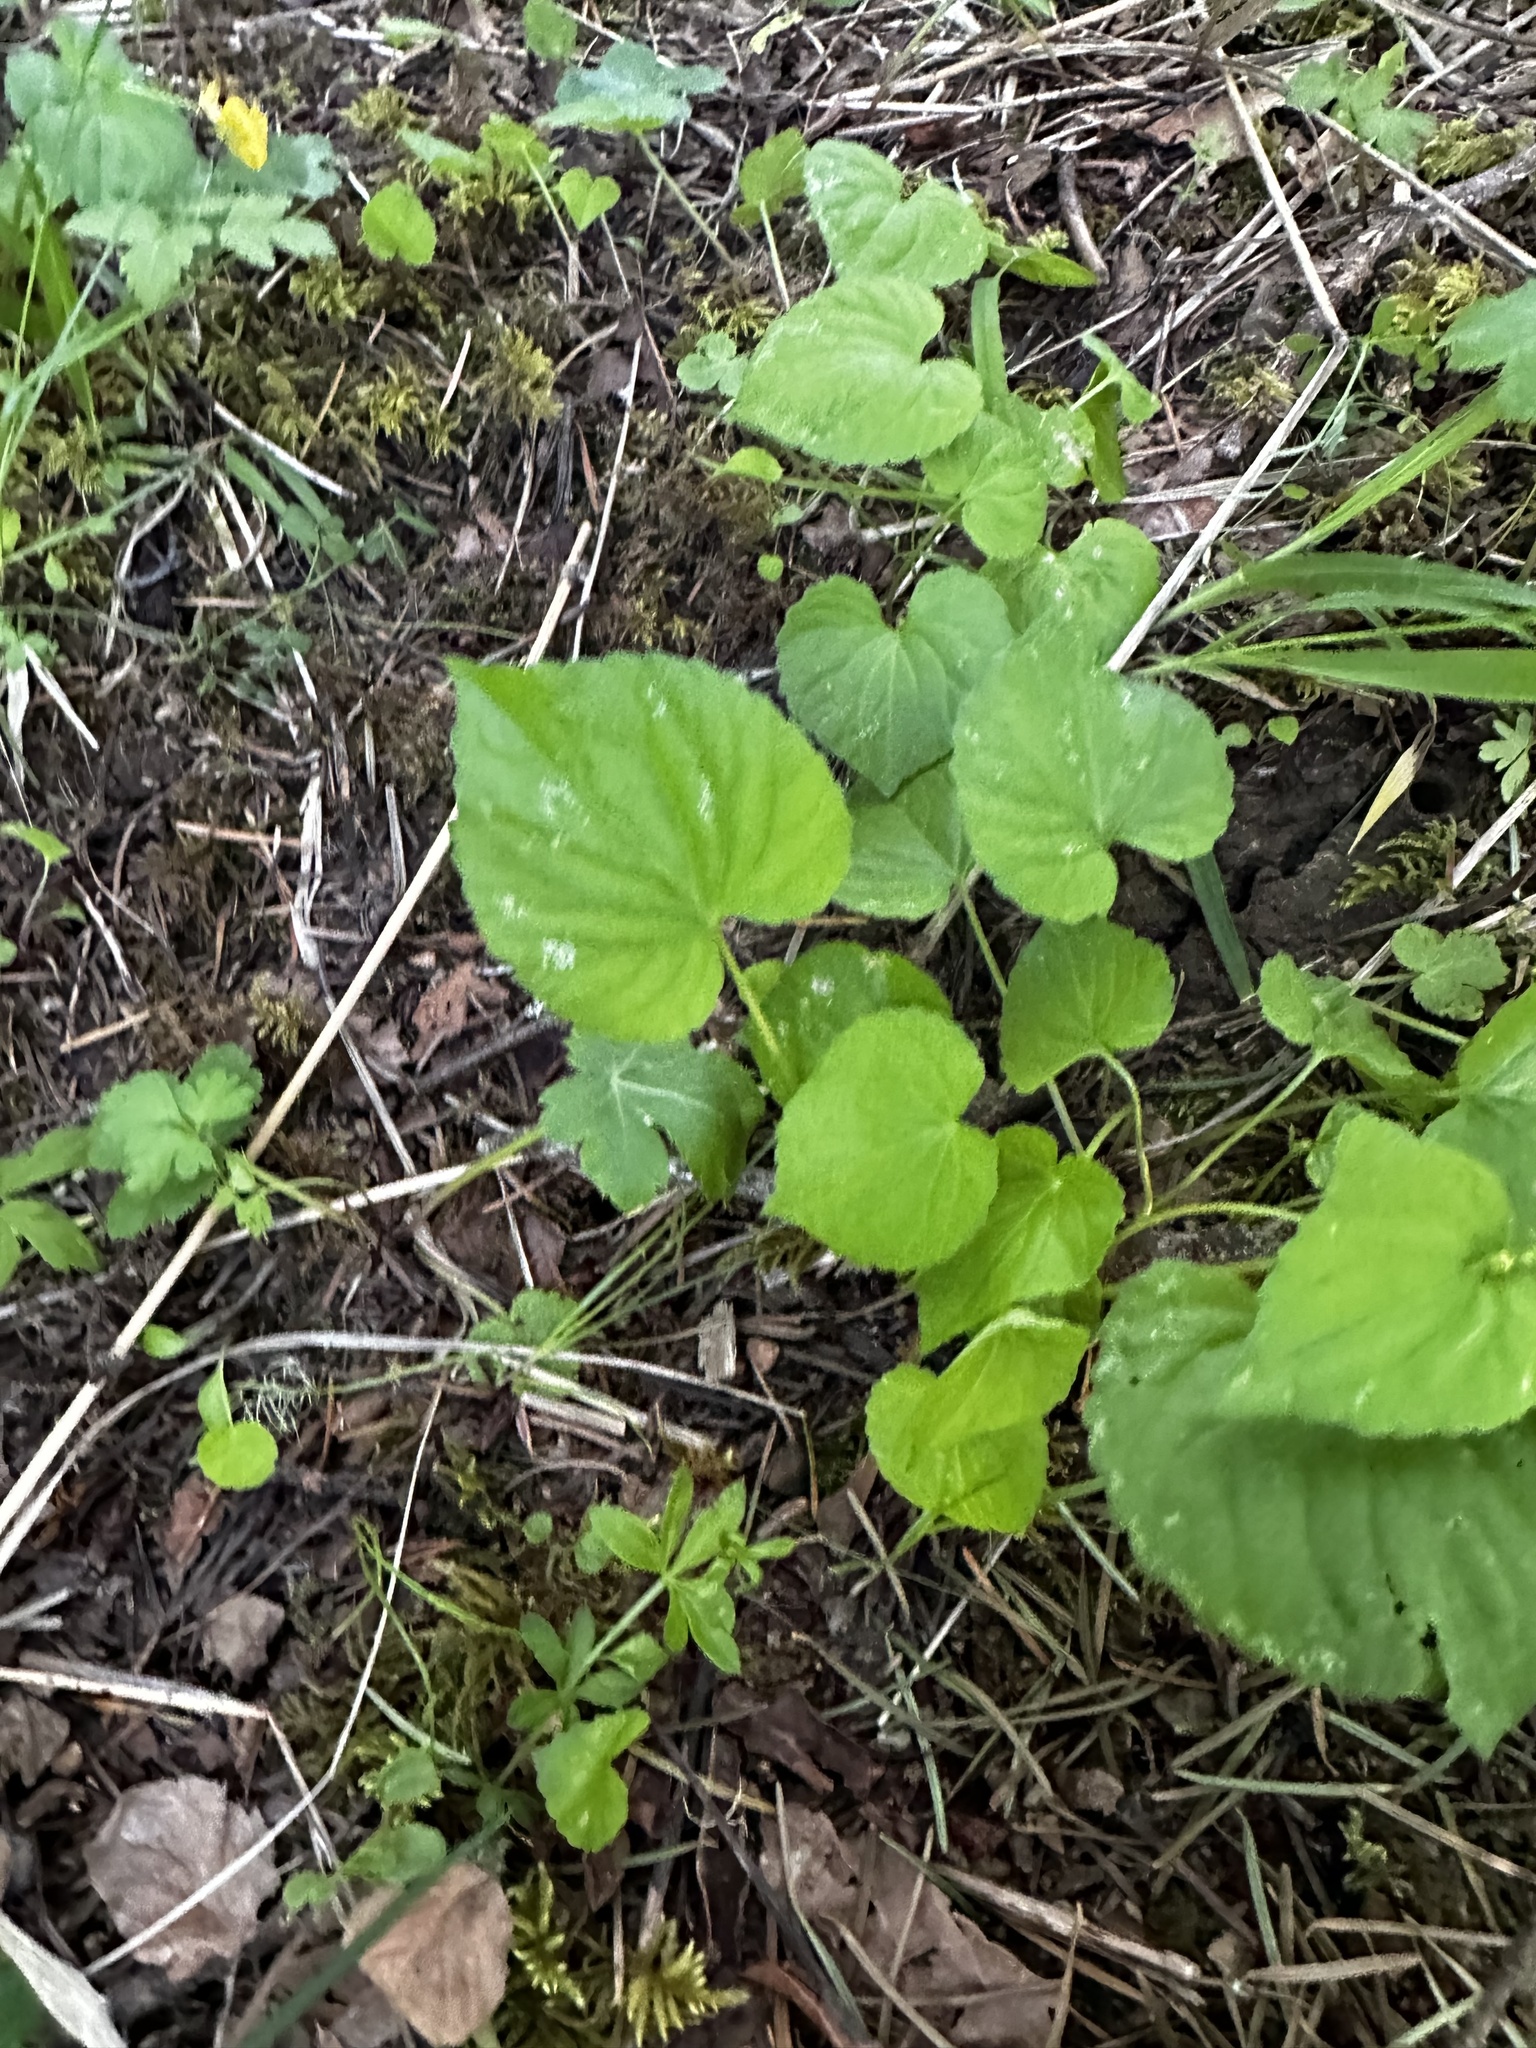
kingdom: Plantae
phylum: Tracheophyta
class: Magnoliopsida
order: Malpighiales
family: Violaceae
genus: Viola
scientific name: Viola glabella
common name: Stream violet
